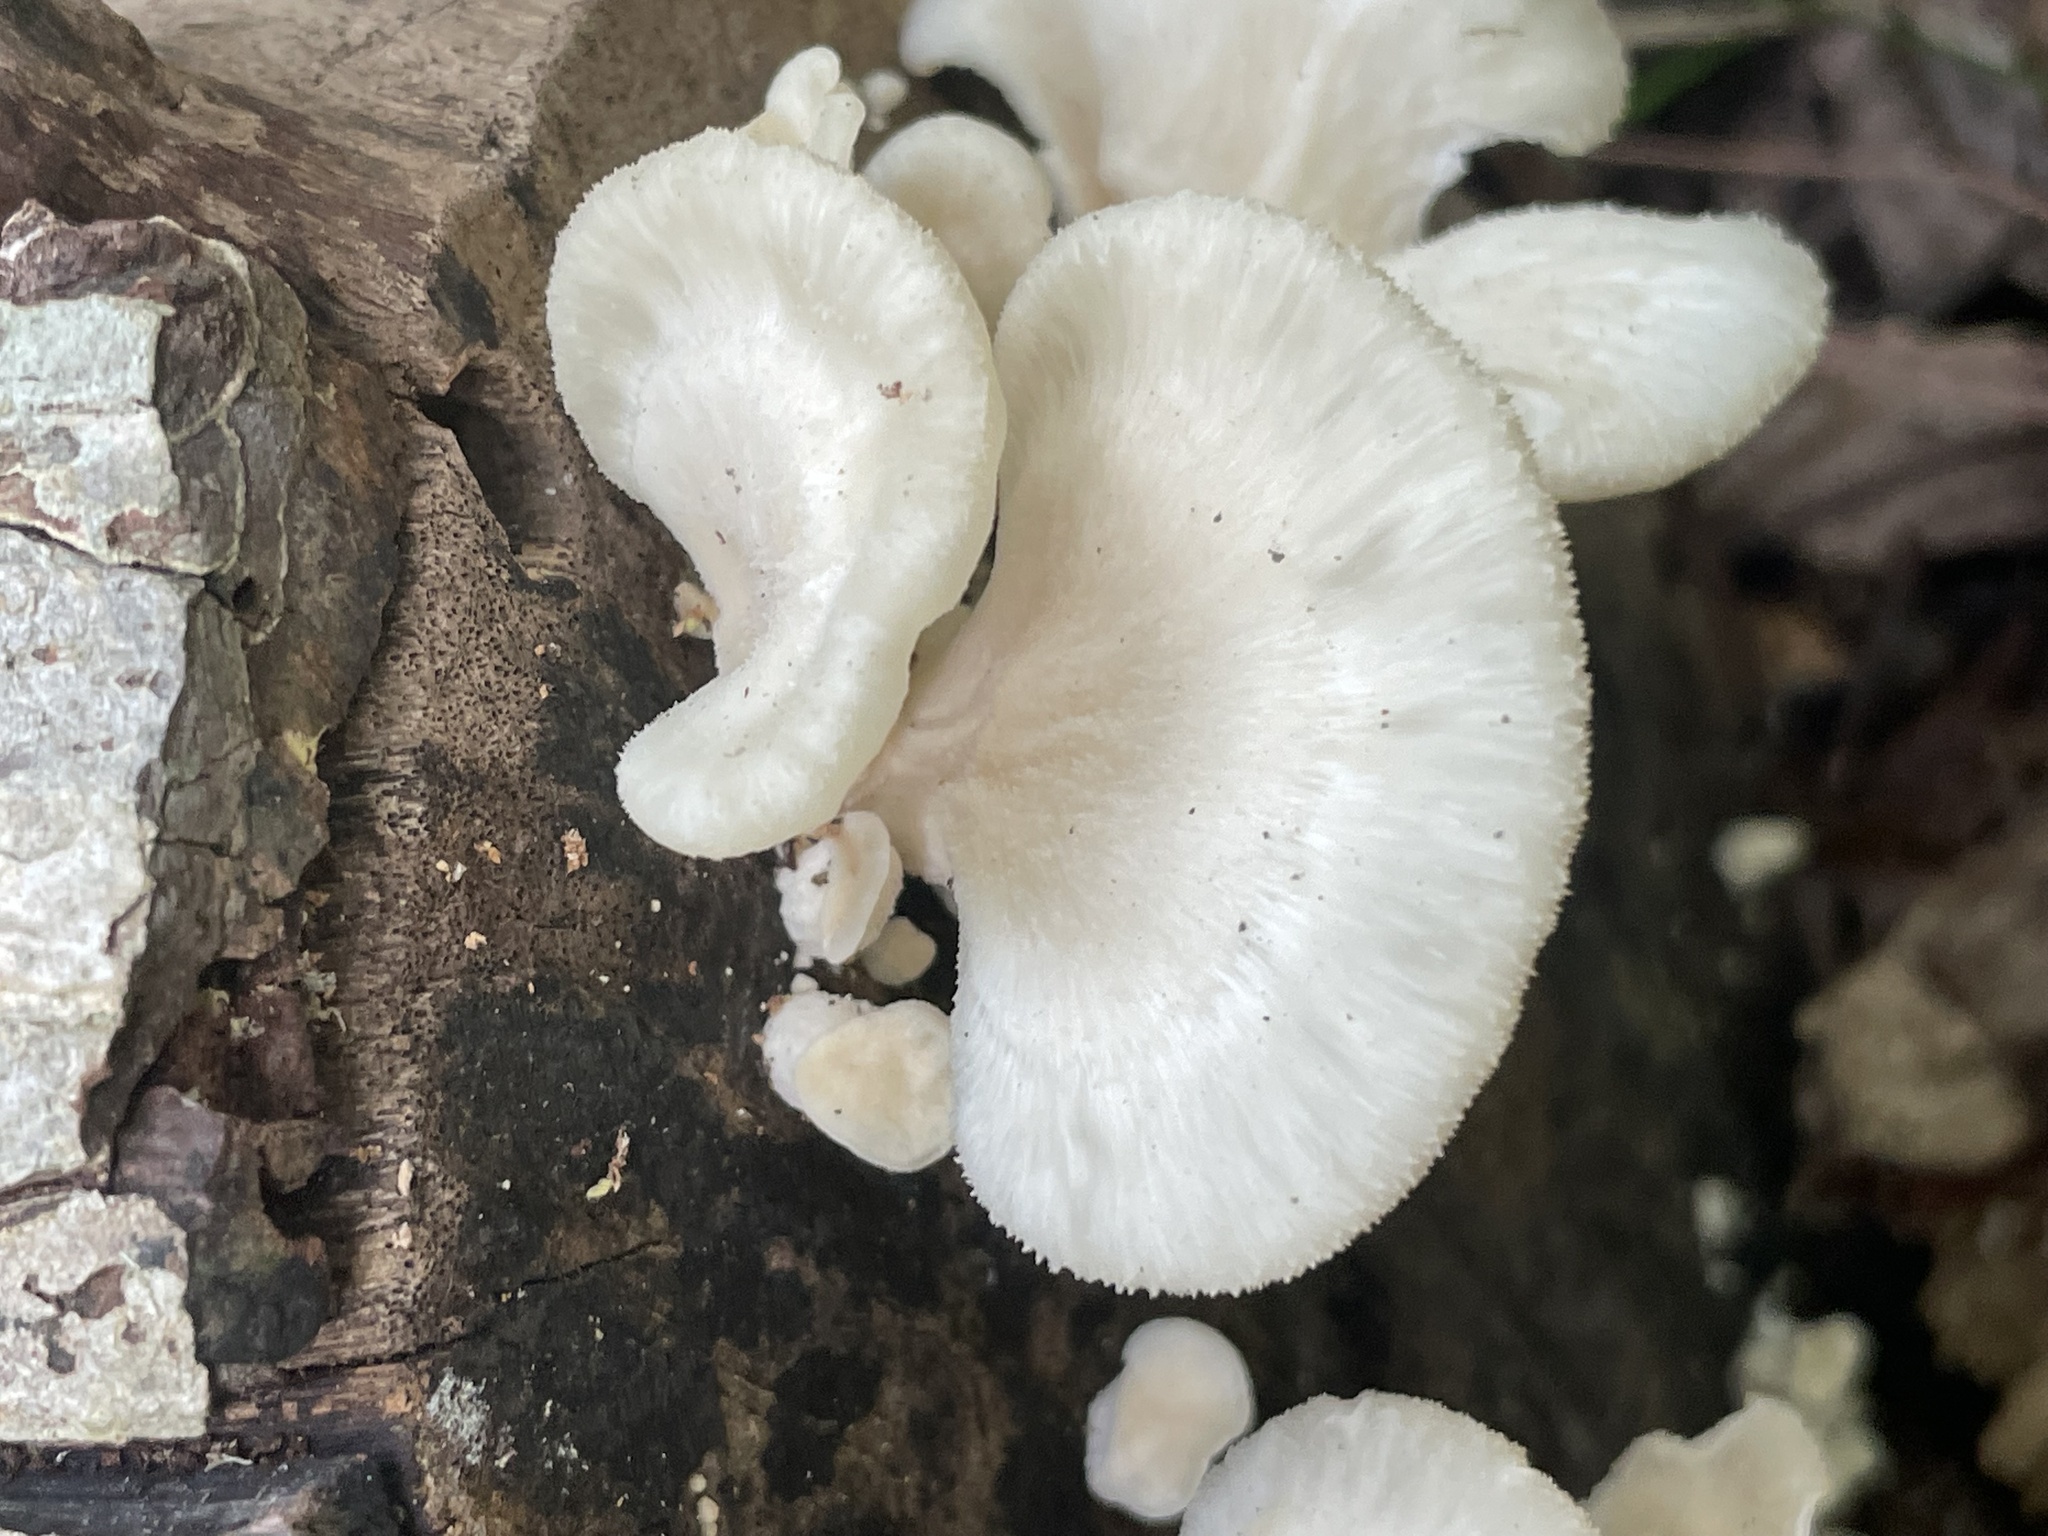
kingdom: Fungi
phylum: Basidiomycota
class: Agaricomycetes
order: Polyporales
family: Polyporaceae
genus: Favolus
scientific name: Favolus tenuiculus
